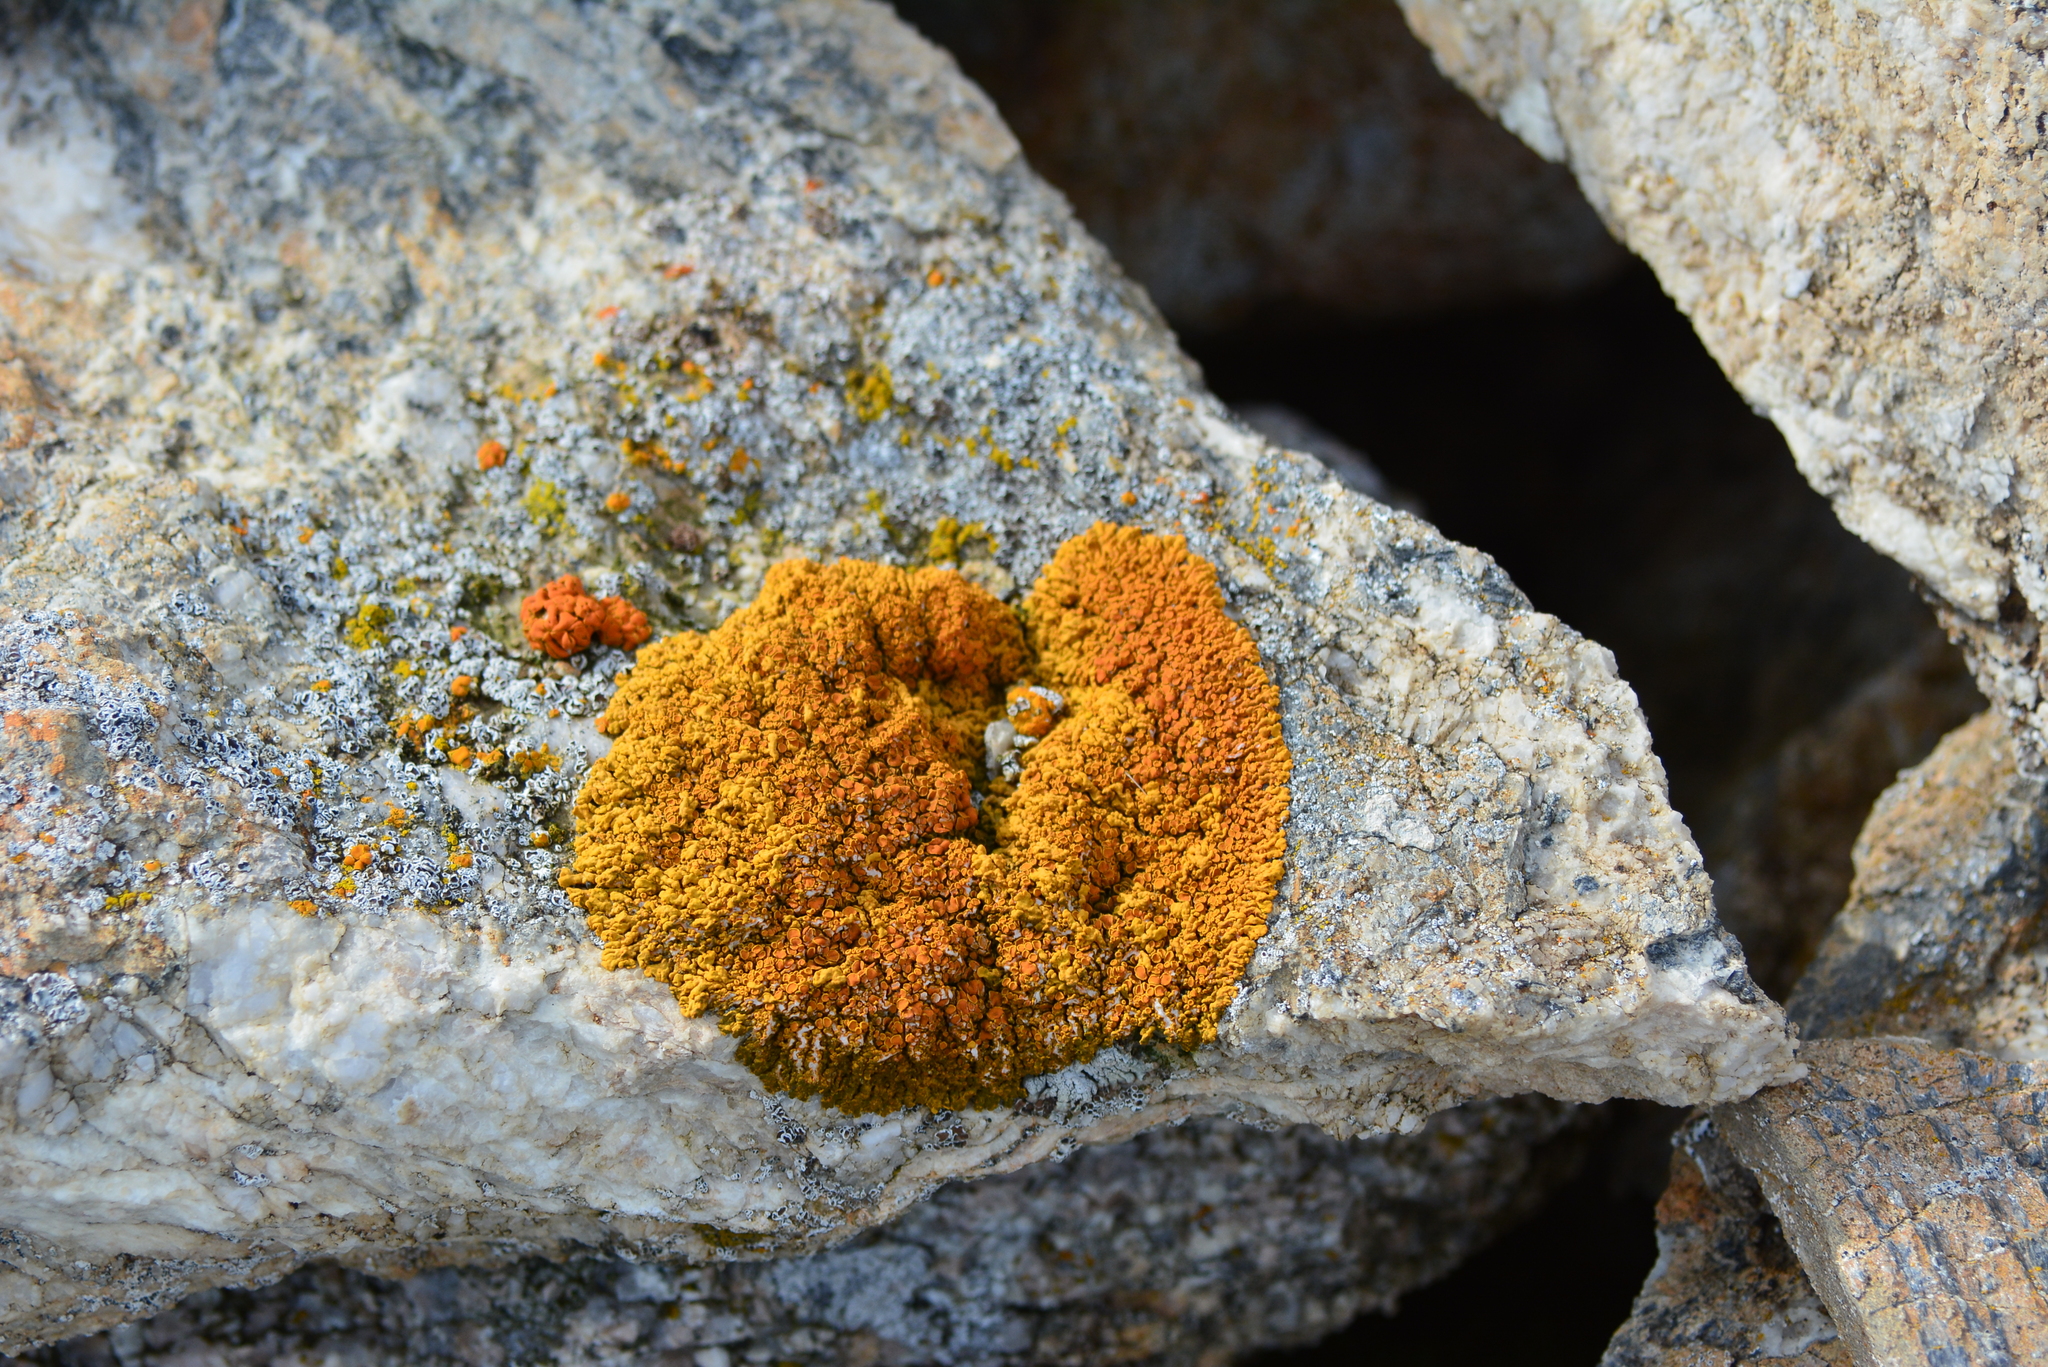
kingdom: Fungi
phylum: Ascomycota
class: Lecanoromycetes
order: Teloschistales
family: Teloschistaceae
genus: Xanthoria
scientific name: Xanthoria elegans
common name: Elegant sunburst lichen
